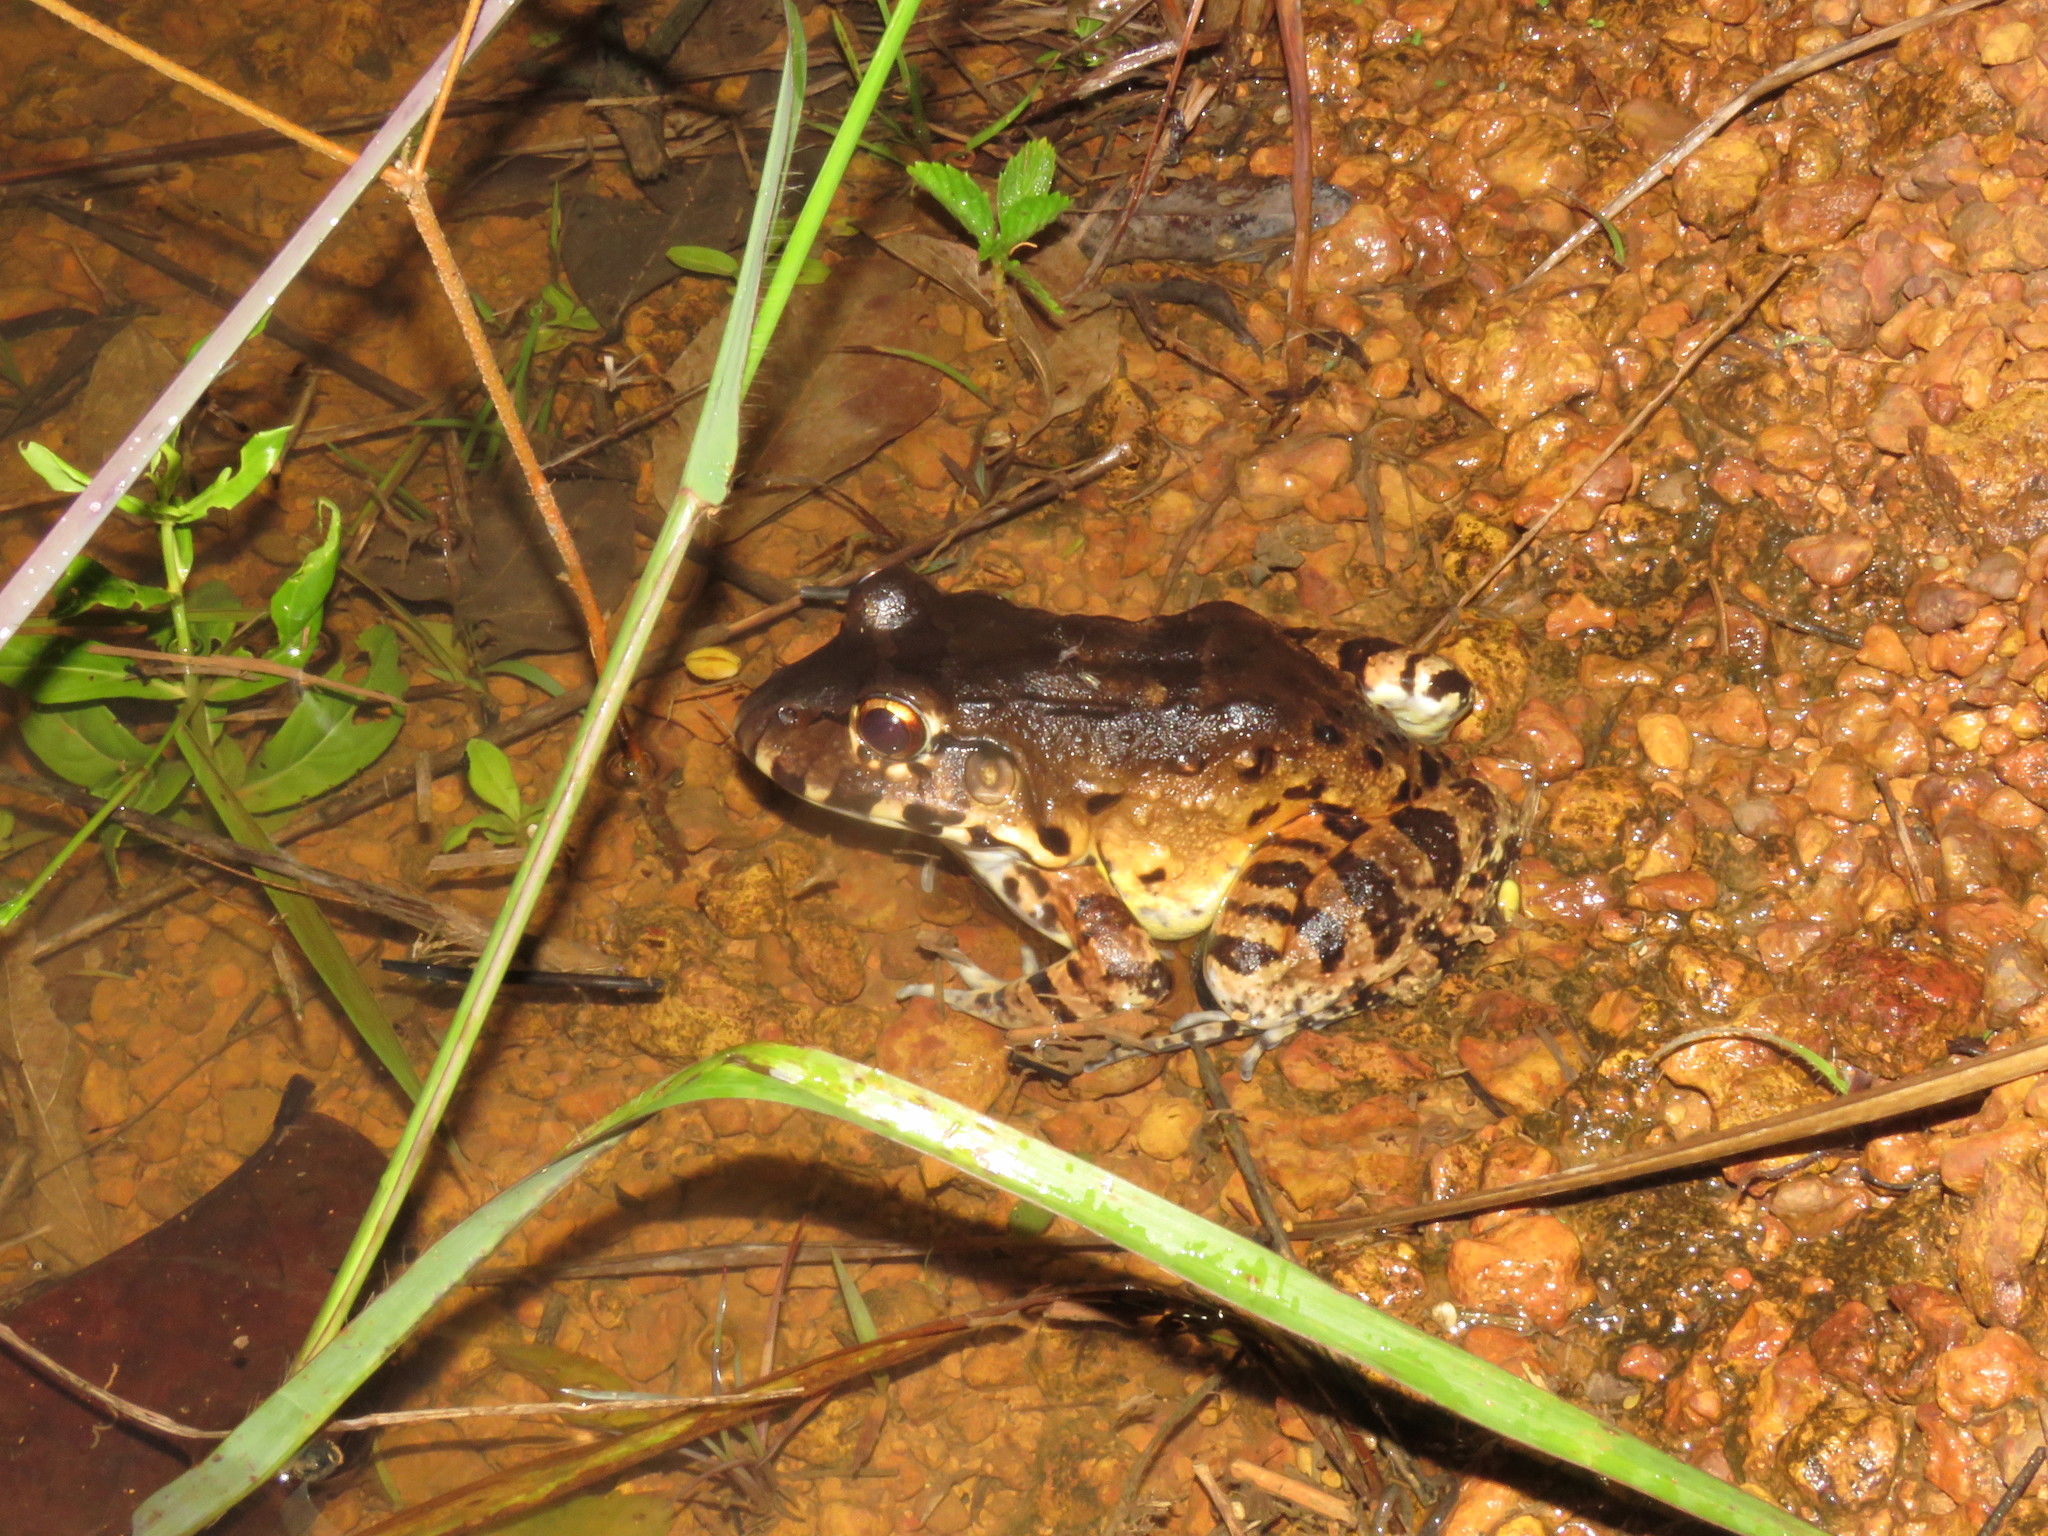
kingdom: Animalia
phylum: Chordata
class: Amphibia
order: Anura
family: Leptodactylidae
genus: Leptodactylus
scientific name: Leptodactylus pentadactylus
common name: Smoky jungle frog
